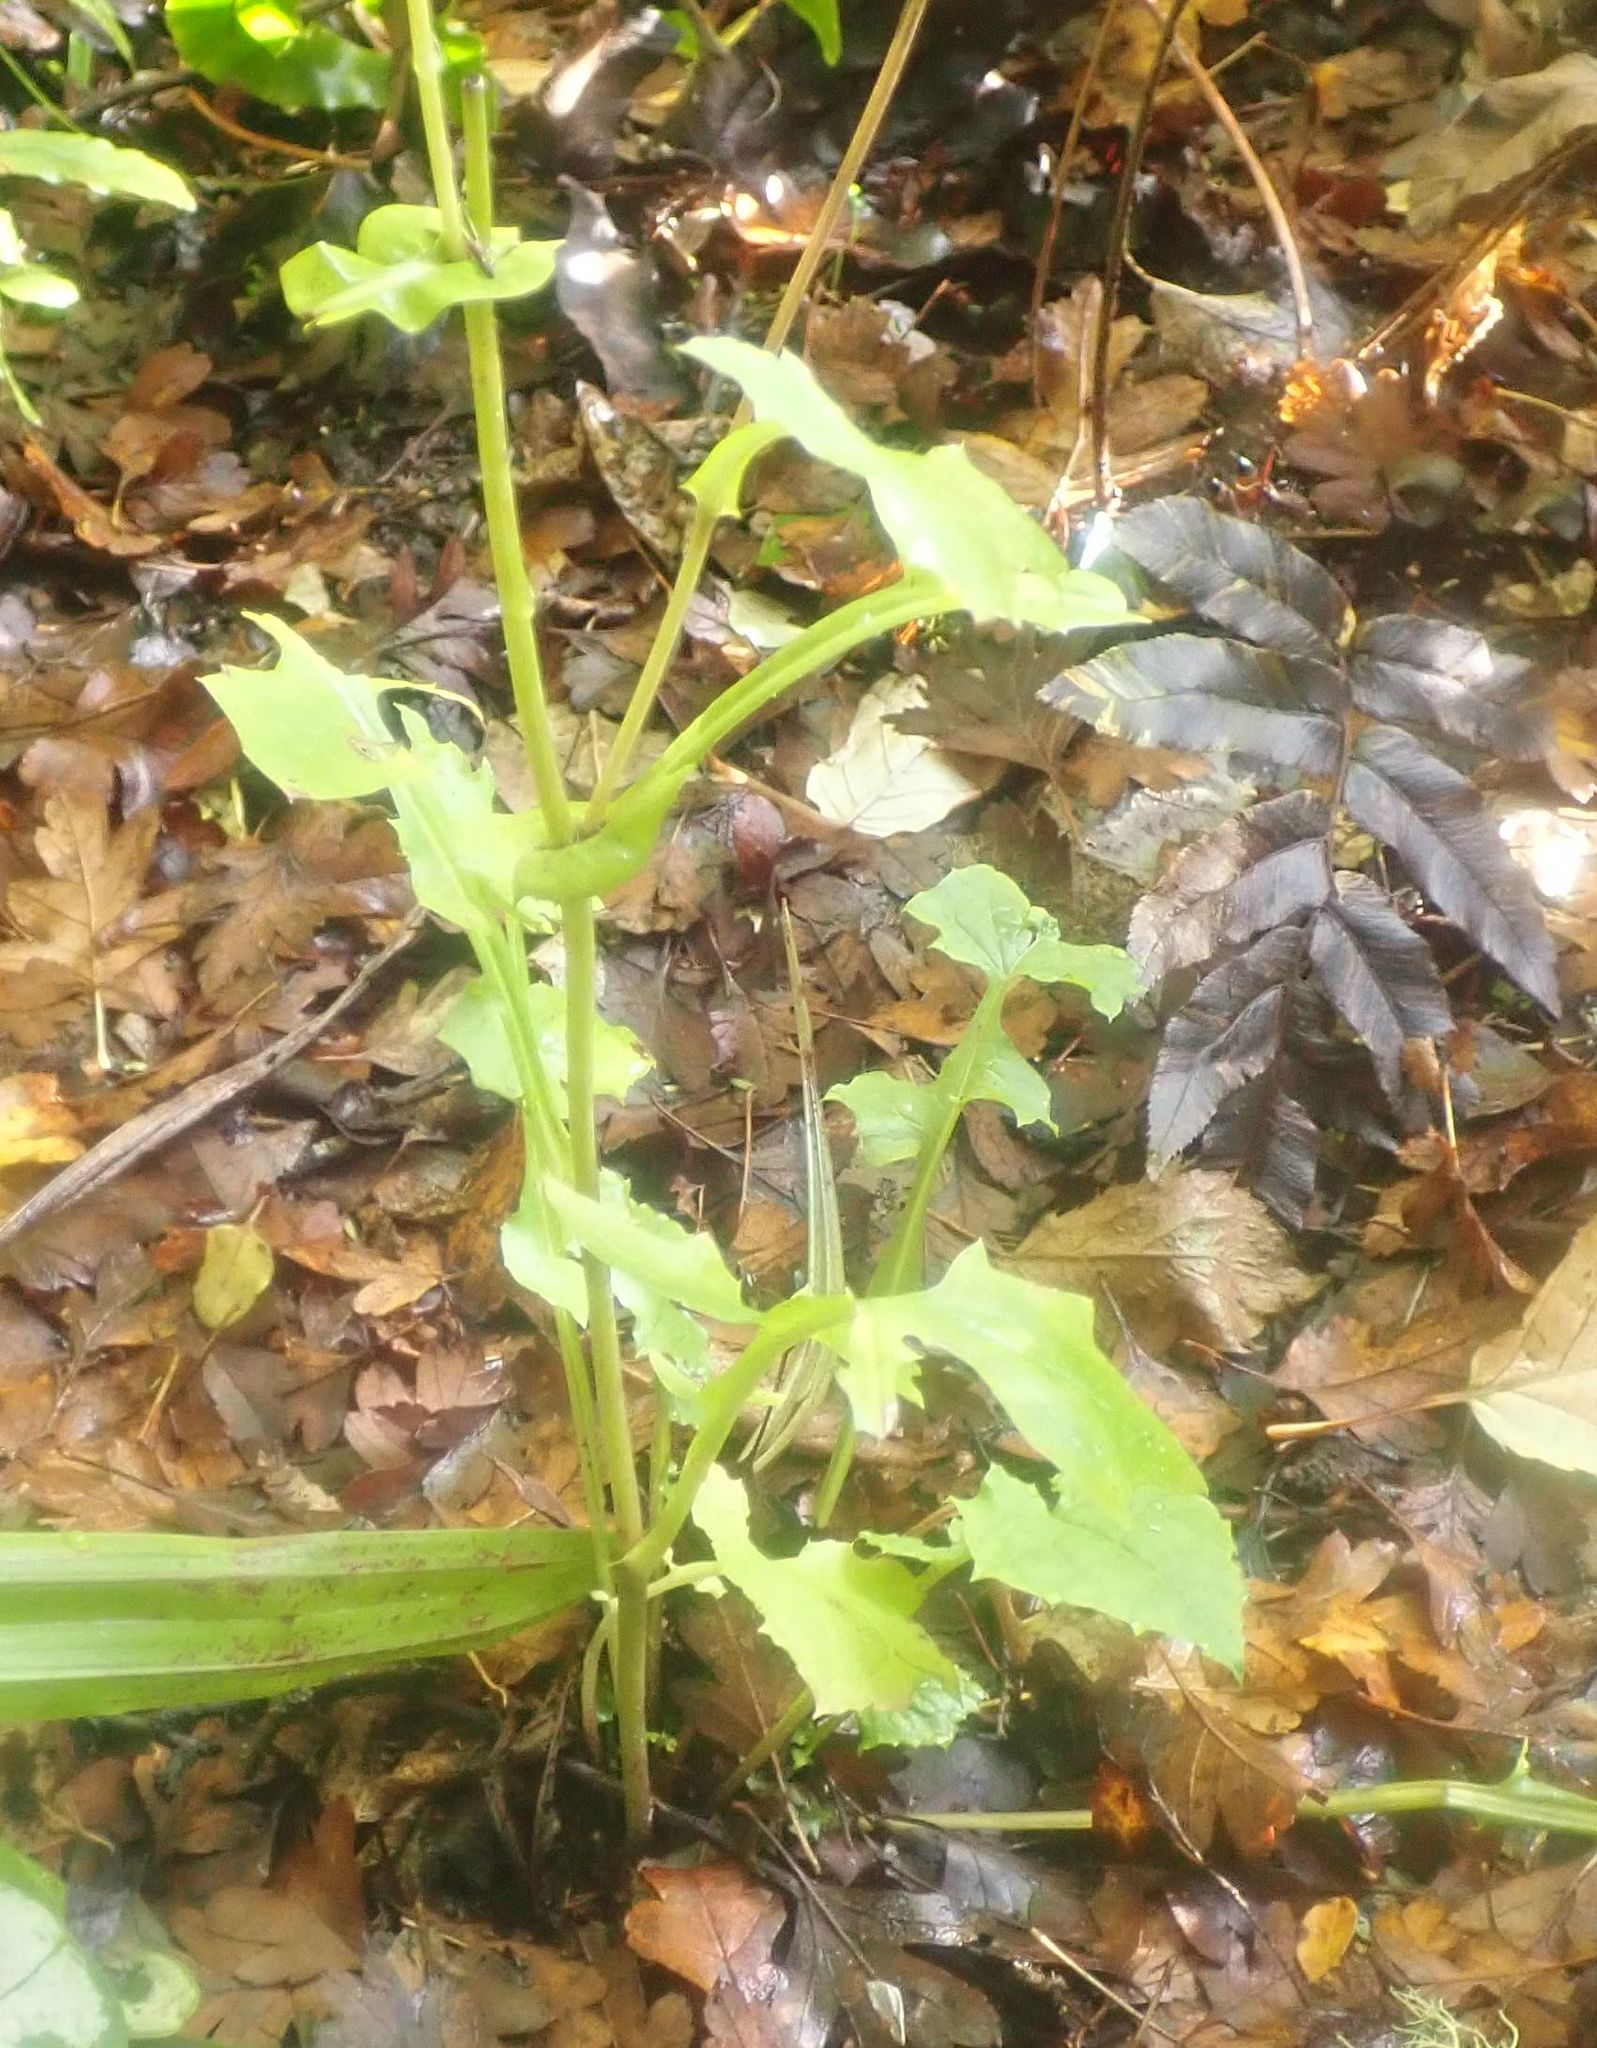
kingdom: Plantae
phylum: Tracheophyta
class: Magnoliopsida
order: Asterales
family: Asteraceae
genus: Mycelis
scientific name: Mycelis muralis
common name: Wall lettuce
